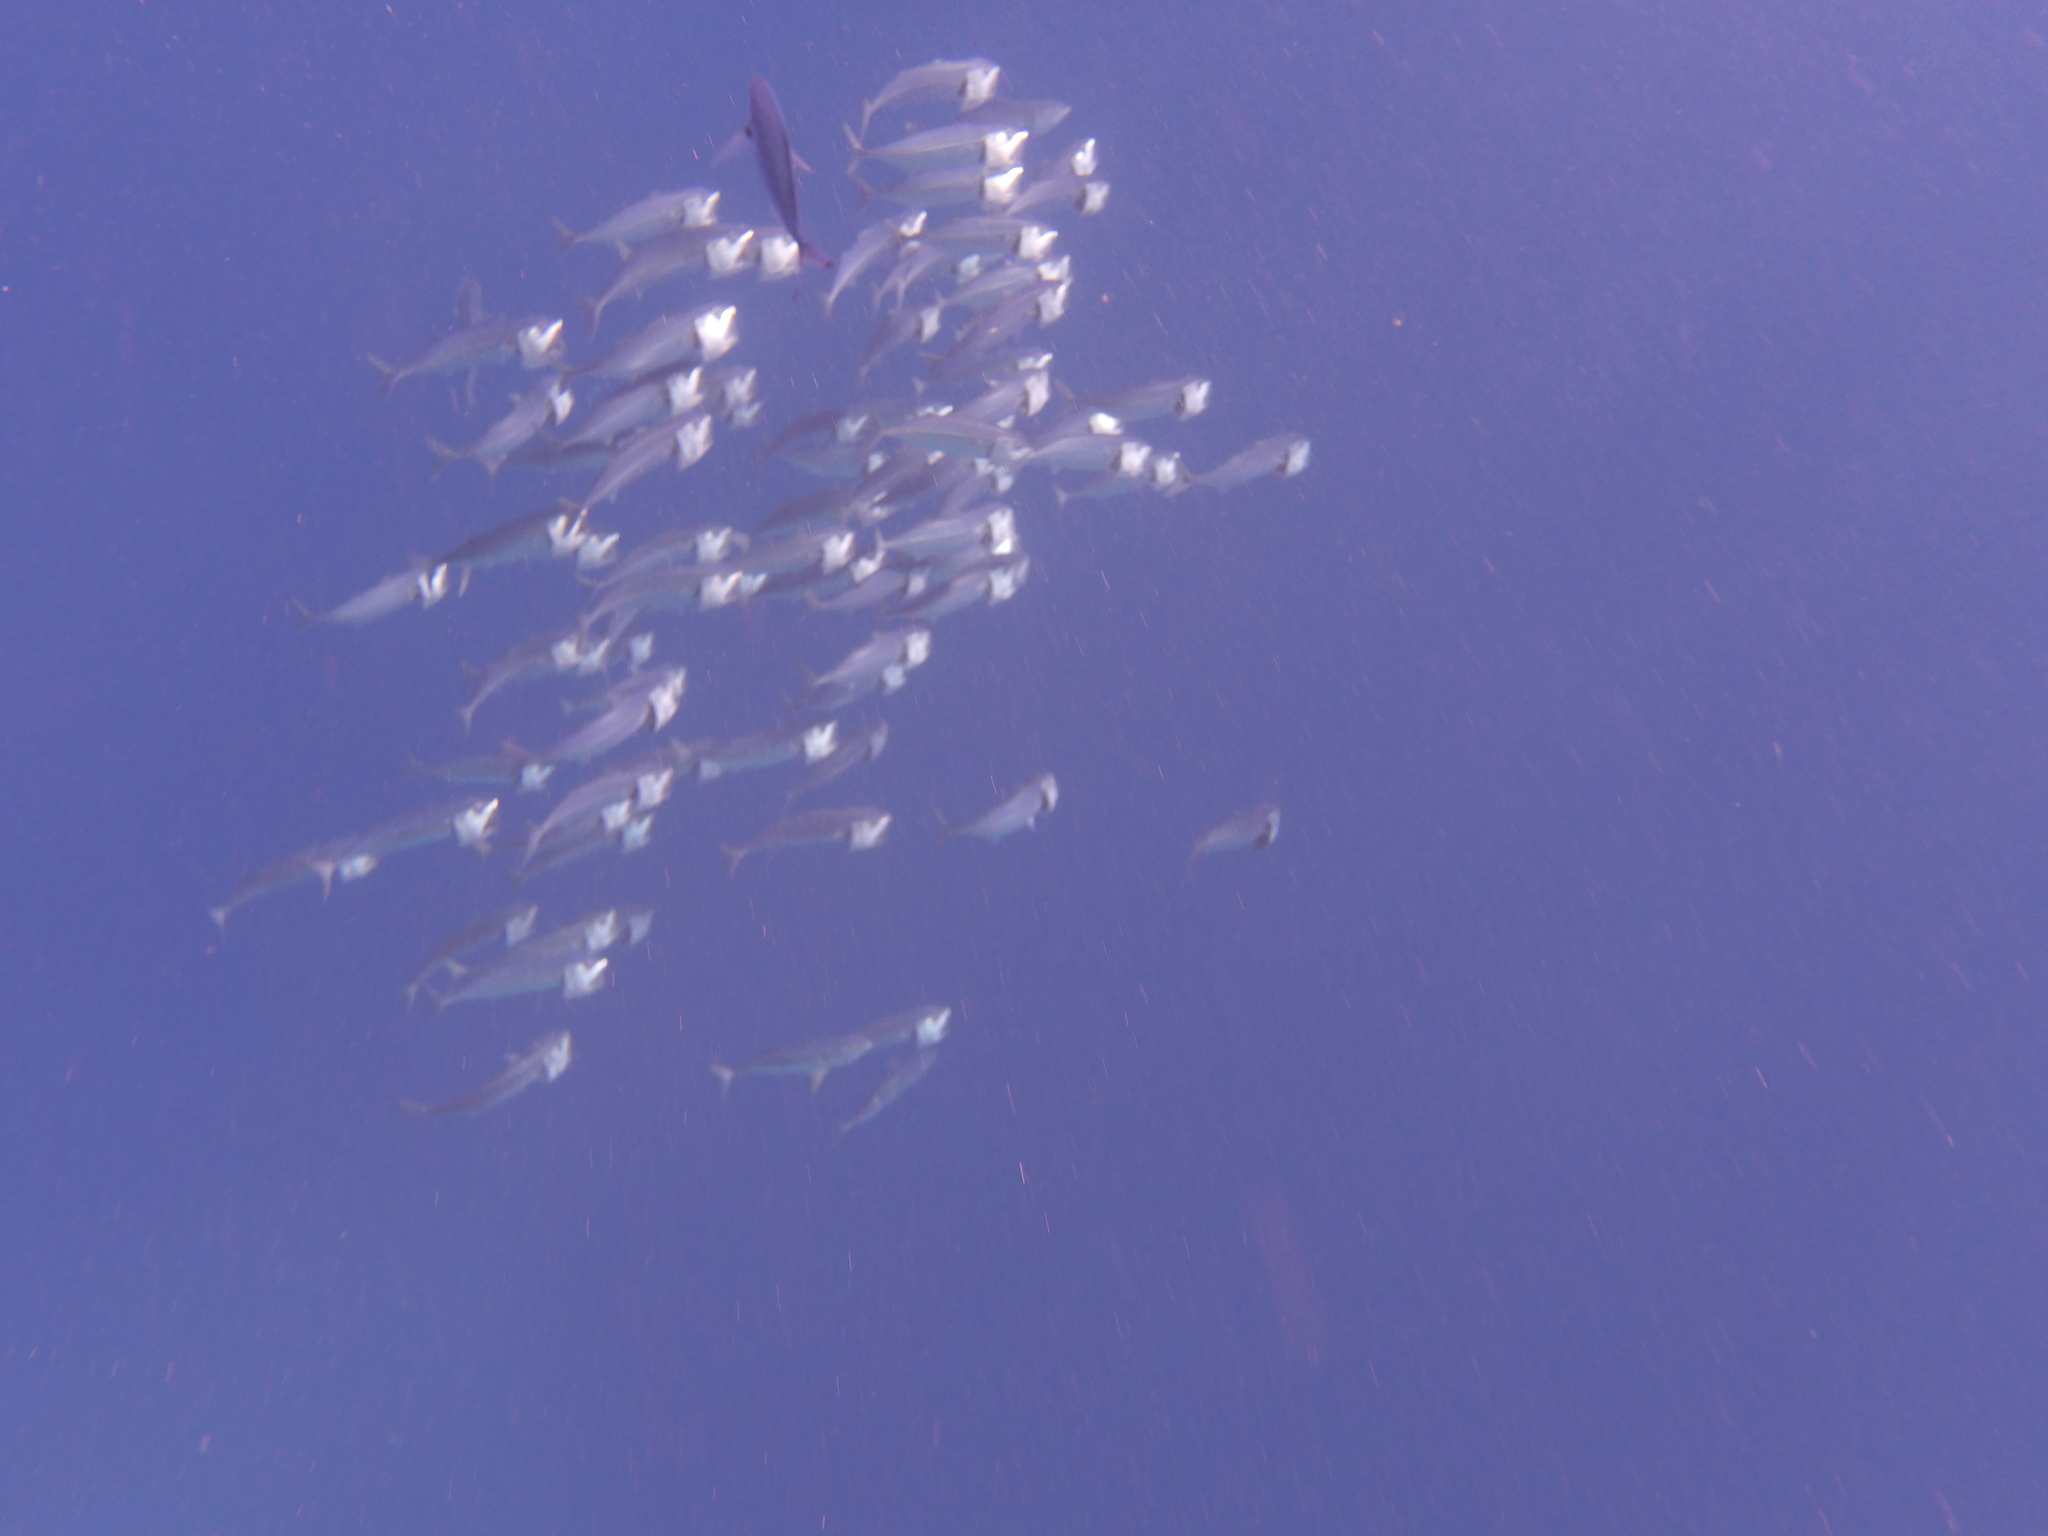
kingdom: Animalia
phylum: Chordata
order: Perciformes
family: Scombridae
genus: Rastrelliger
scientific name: Rastrelliger kanagurta
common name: Indian mackerel
